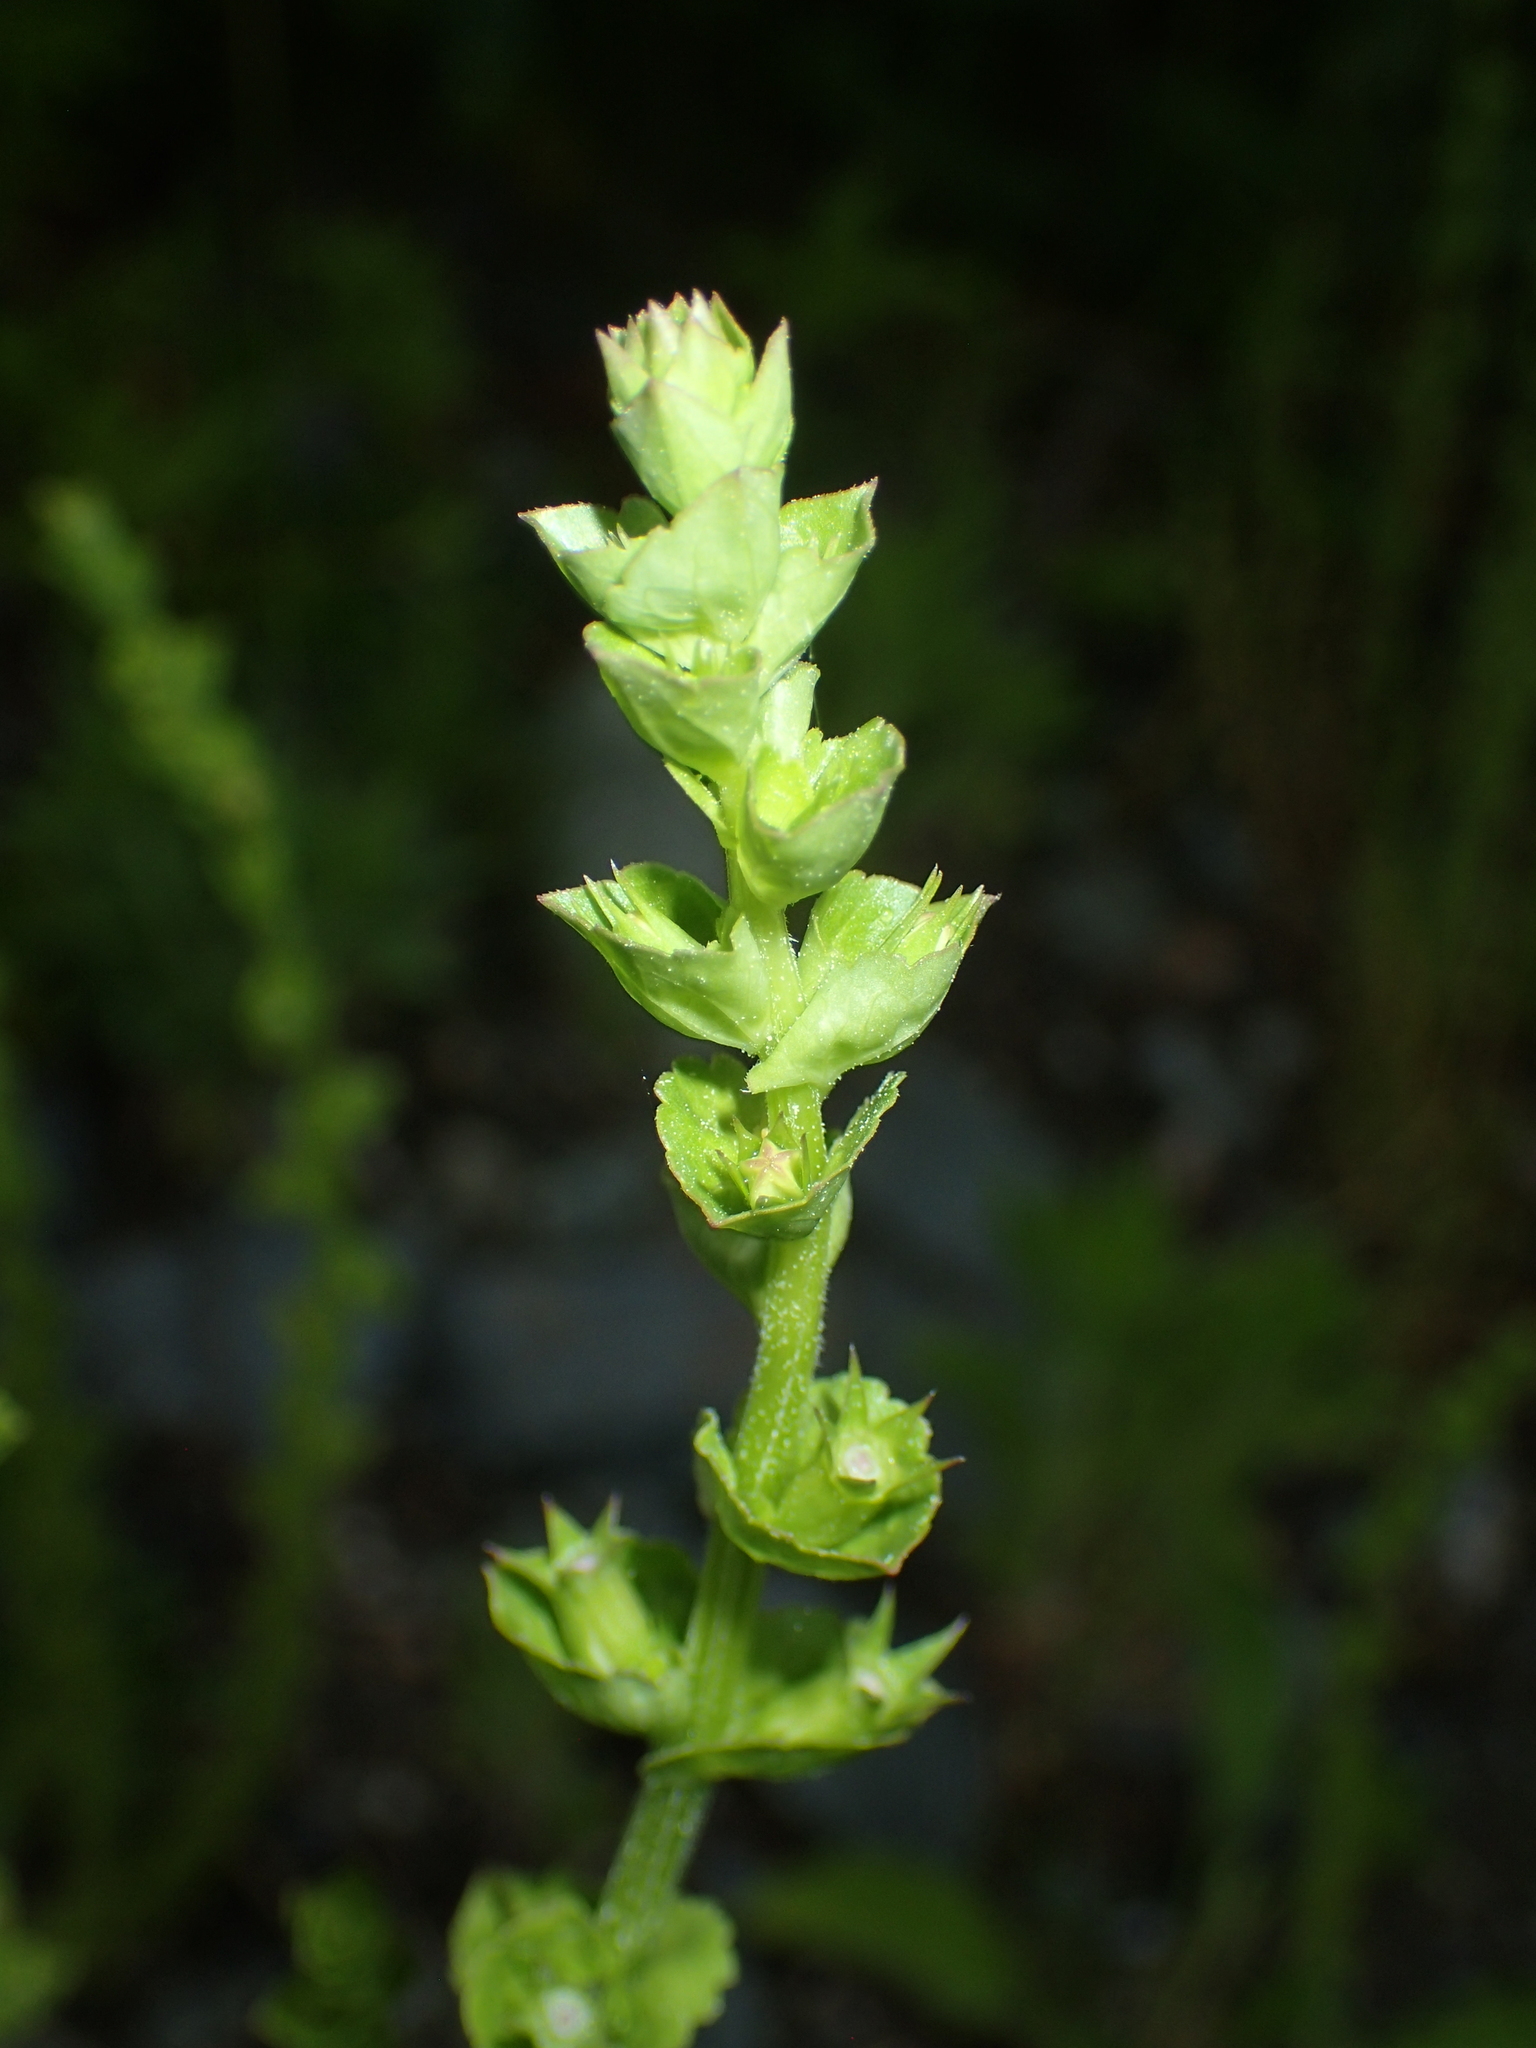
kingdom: Plantae
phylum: Tracheophyta
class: Magnoliopsida
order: Asterales
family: Campanulaceae
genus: Triodanis
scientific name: Triodanis perfoliata
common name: Clasping venus' looking-glass
